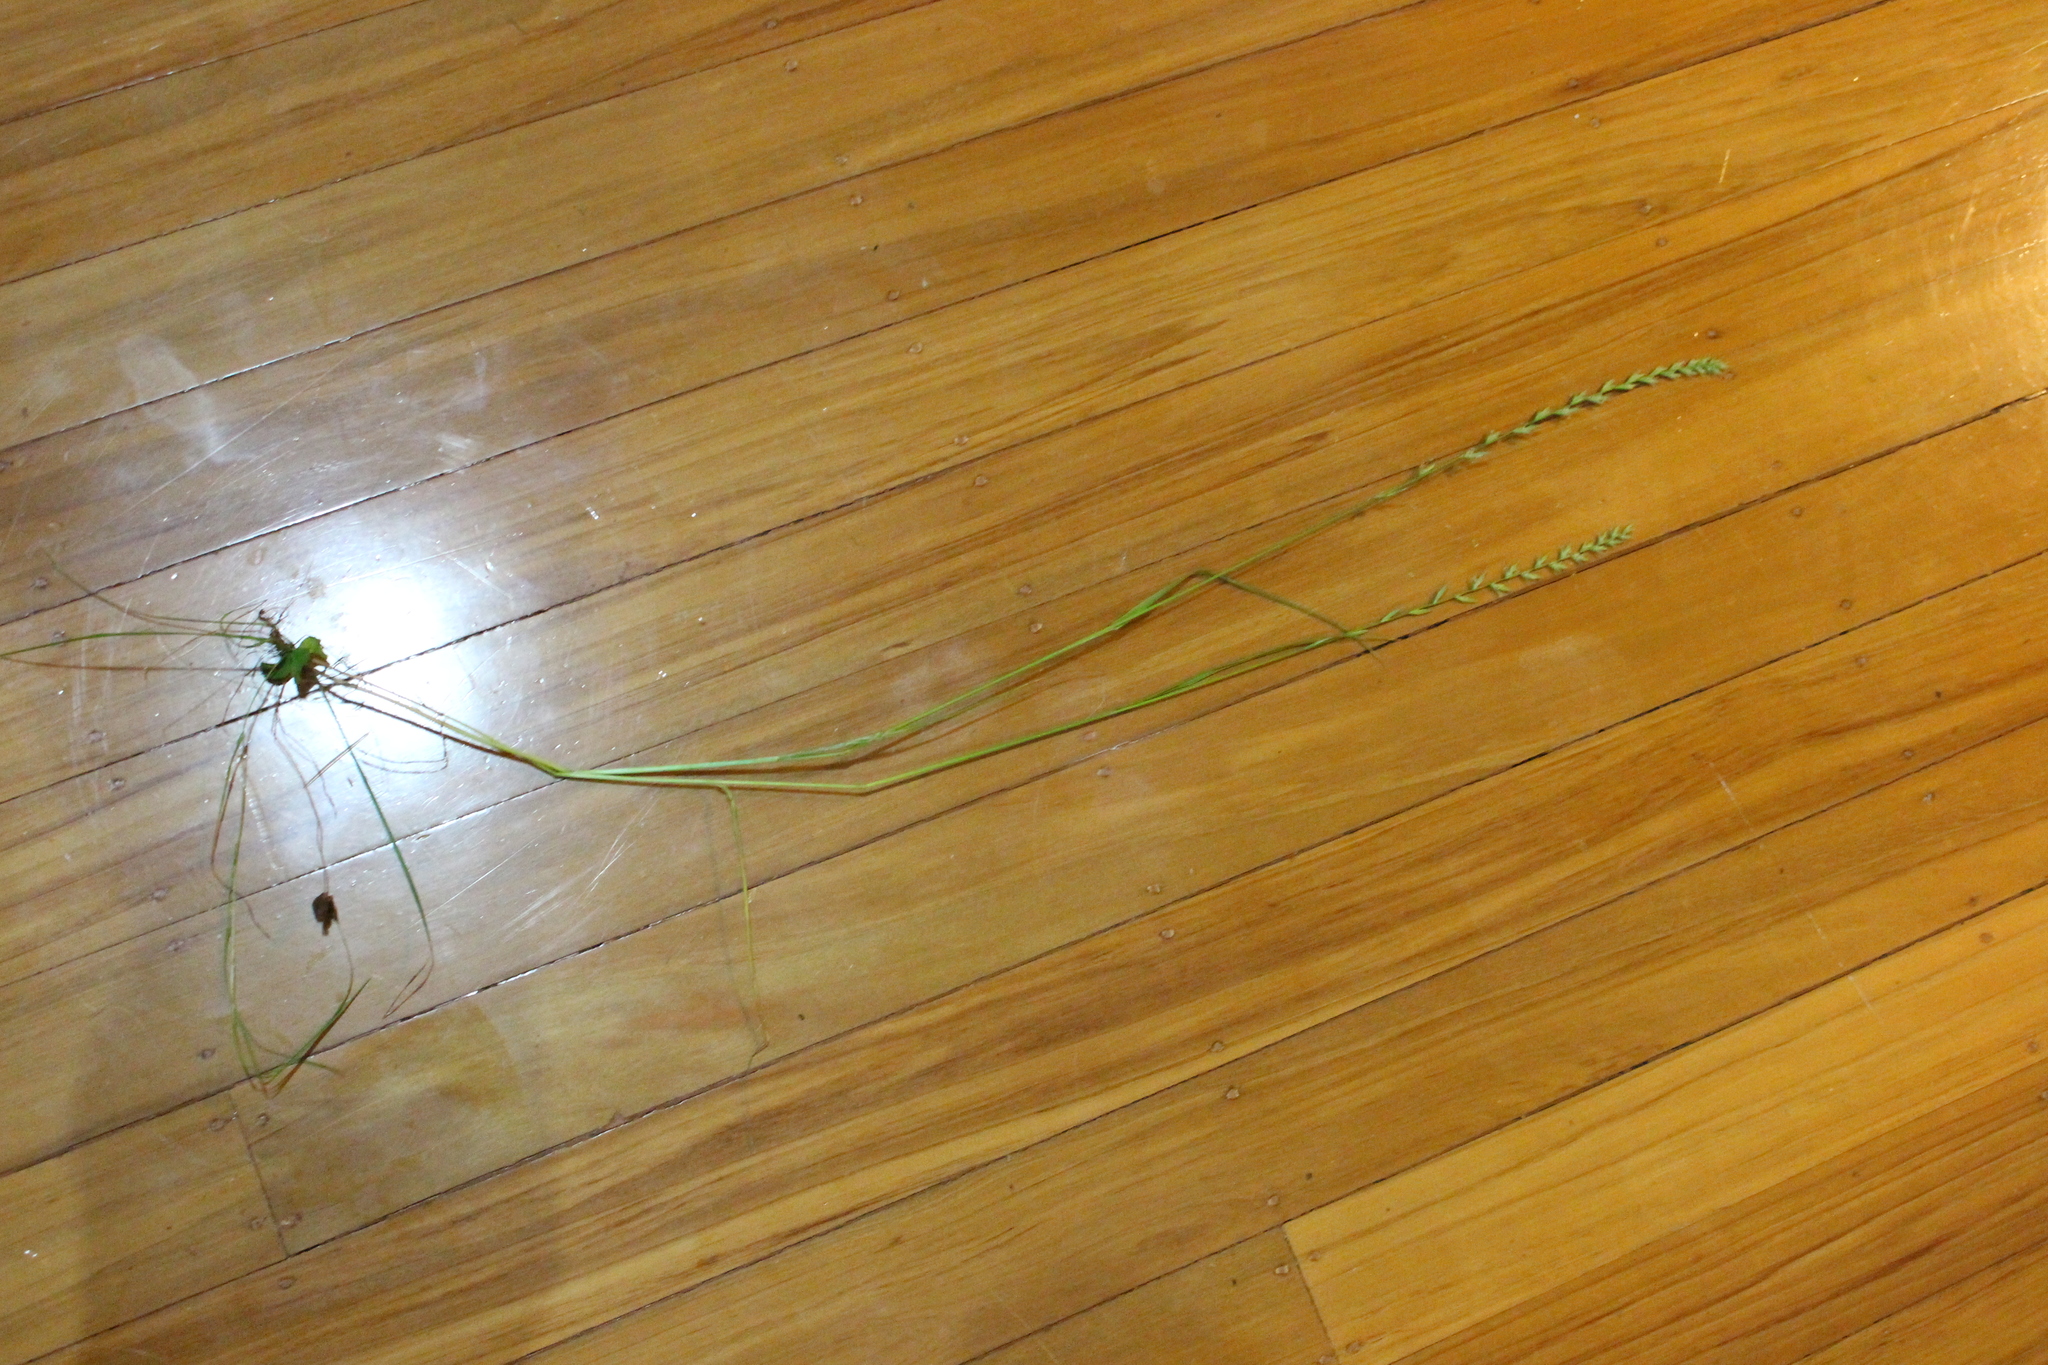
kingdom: Plantae
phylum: Tracheophyta
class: Liliopsida
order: Poales
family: Poaceae
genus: Lolium
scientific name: Lolium perenne
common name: Perennial ryegrass
